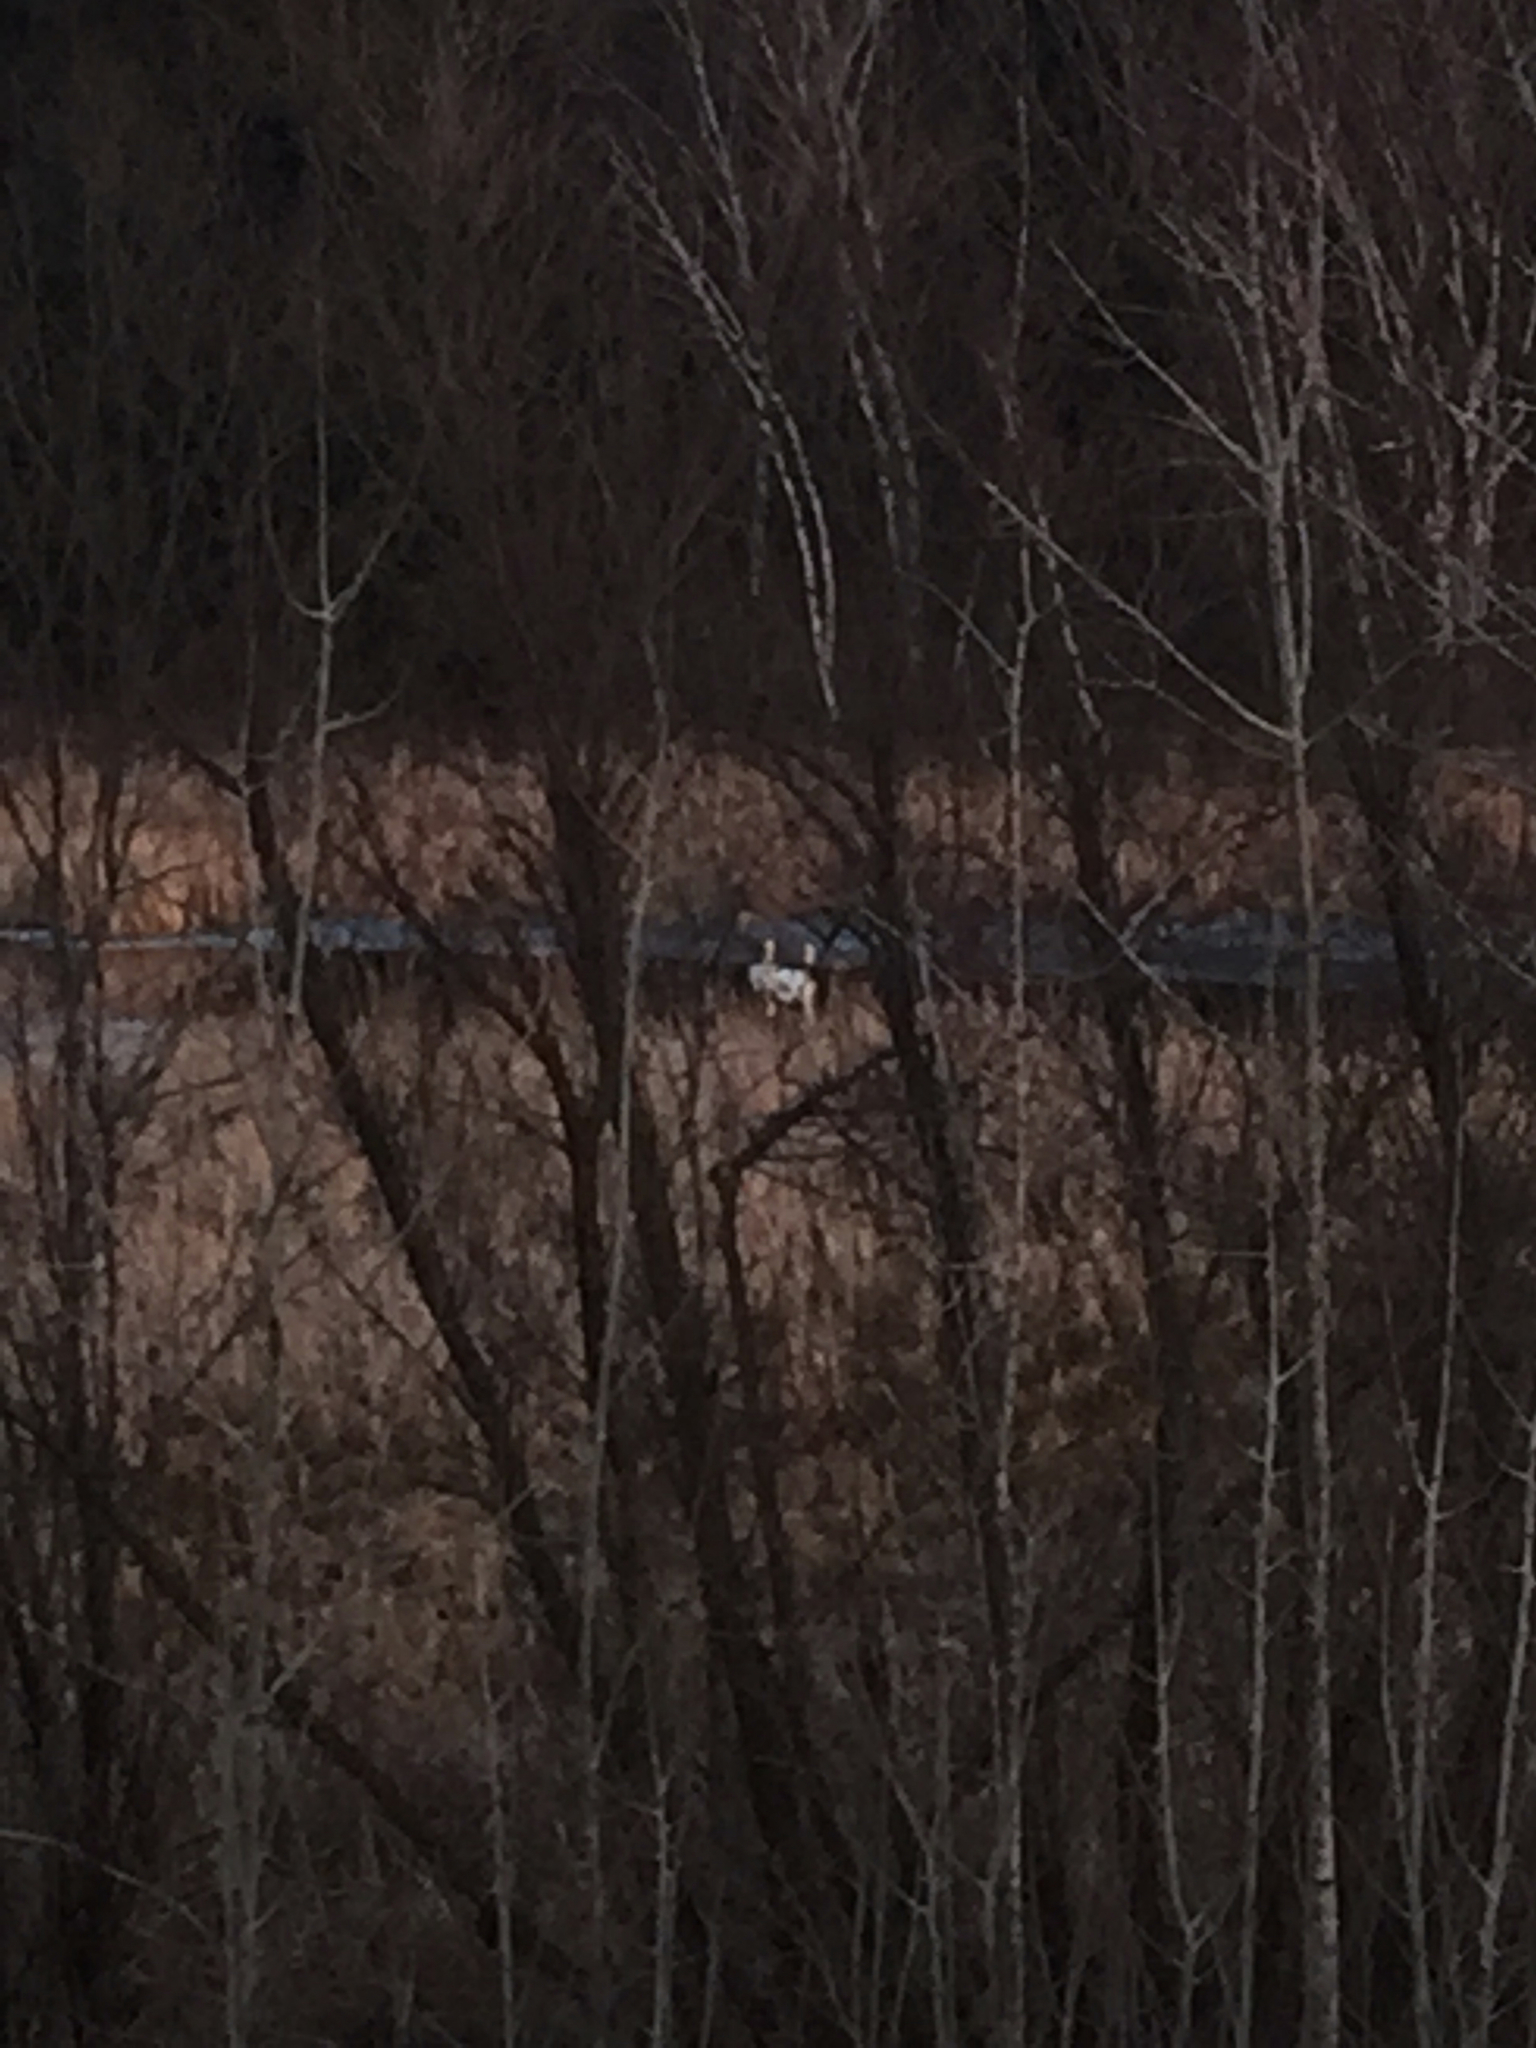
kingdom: Animalia
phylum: Chordata
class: Aves
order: Anseriformes
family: Anatidae
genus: Cygnus
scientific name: Cygnus buccinator
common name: Trumpeter swan
